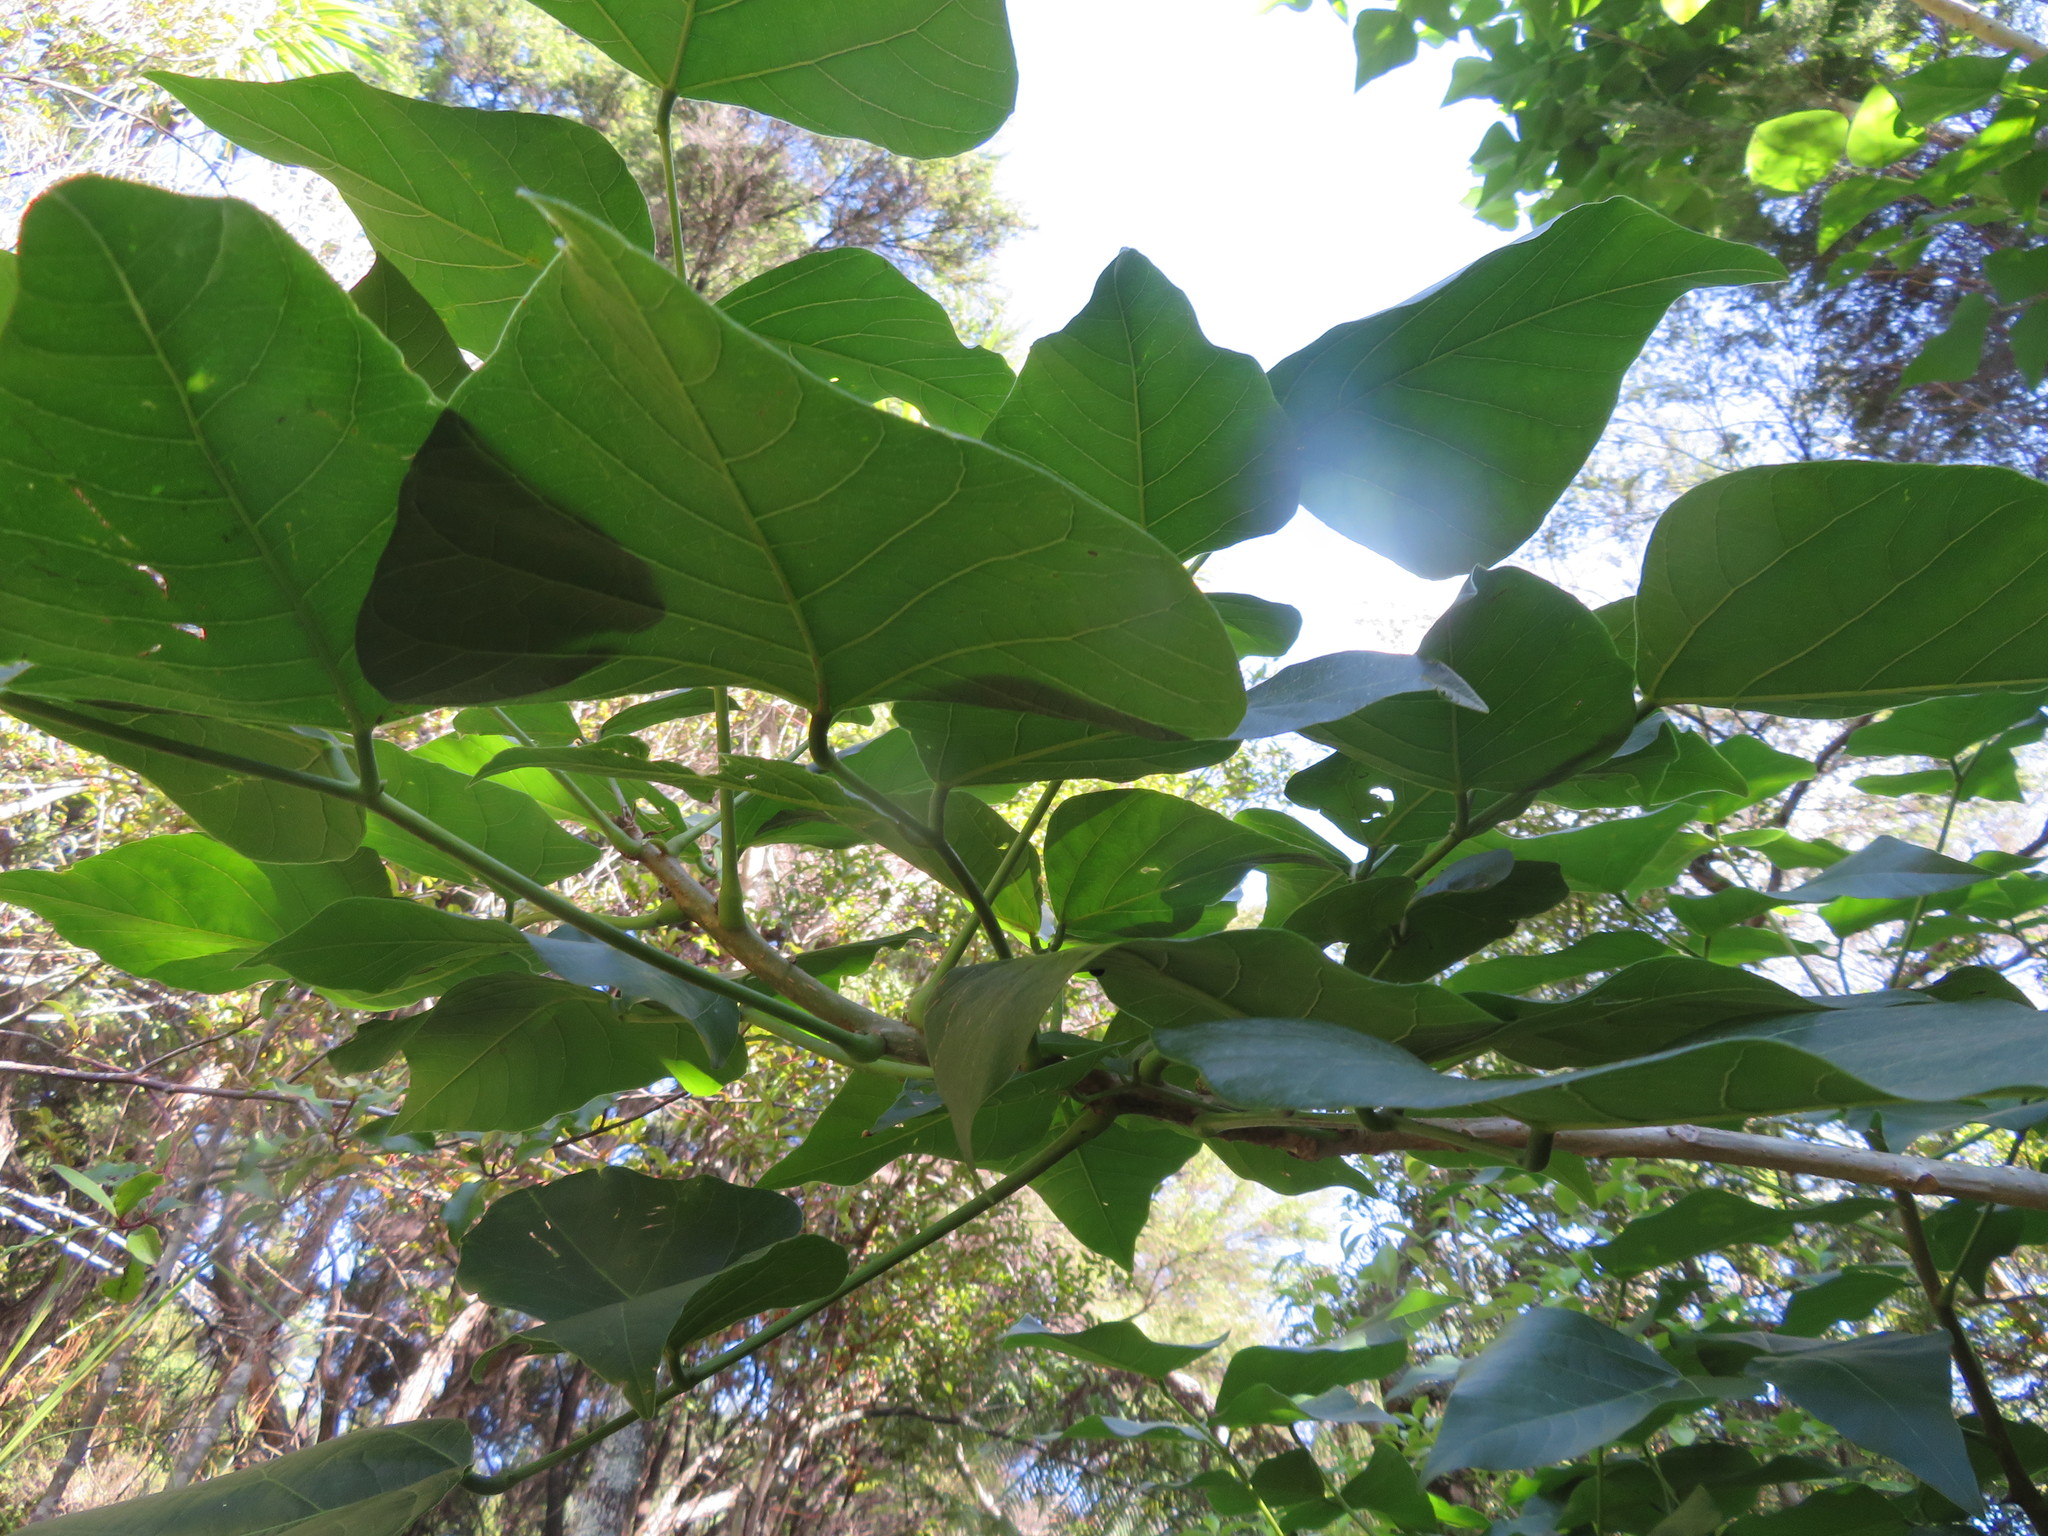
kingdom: Plantae
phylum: Tracheophyta
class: Magnoliopsida
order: Fabales
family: Fabaceae
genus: Erythrina
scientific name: Erythrina sykesii
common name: Coraltree
